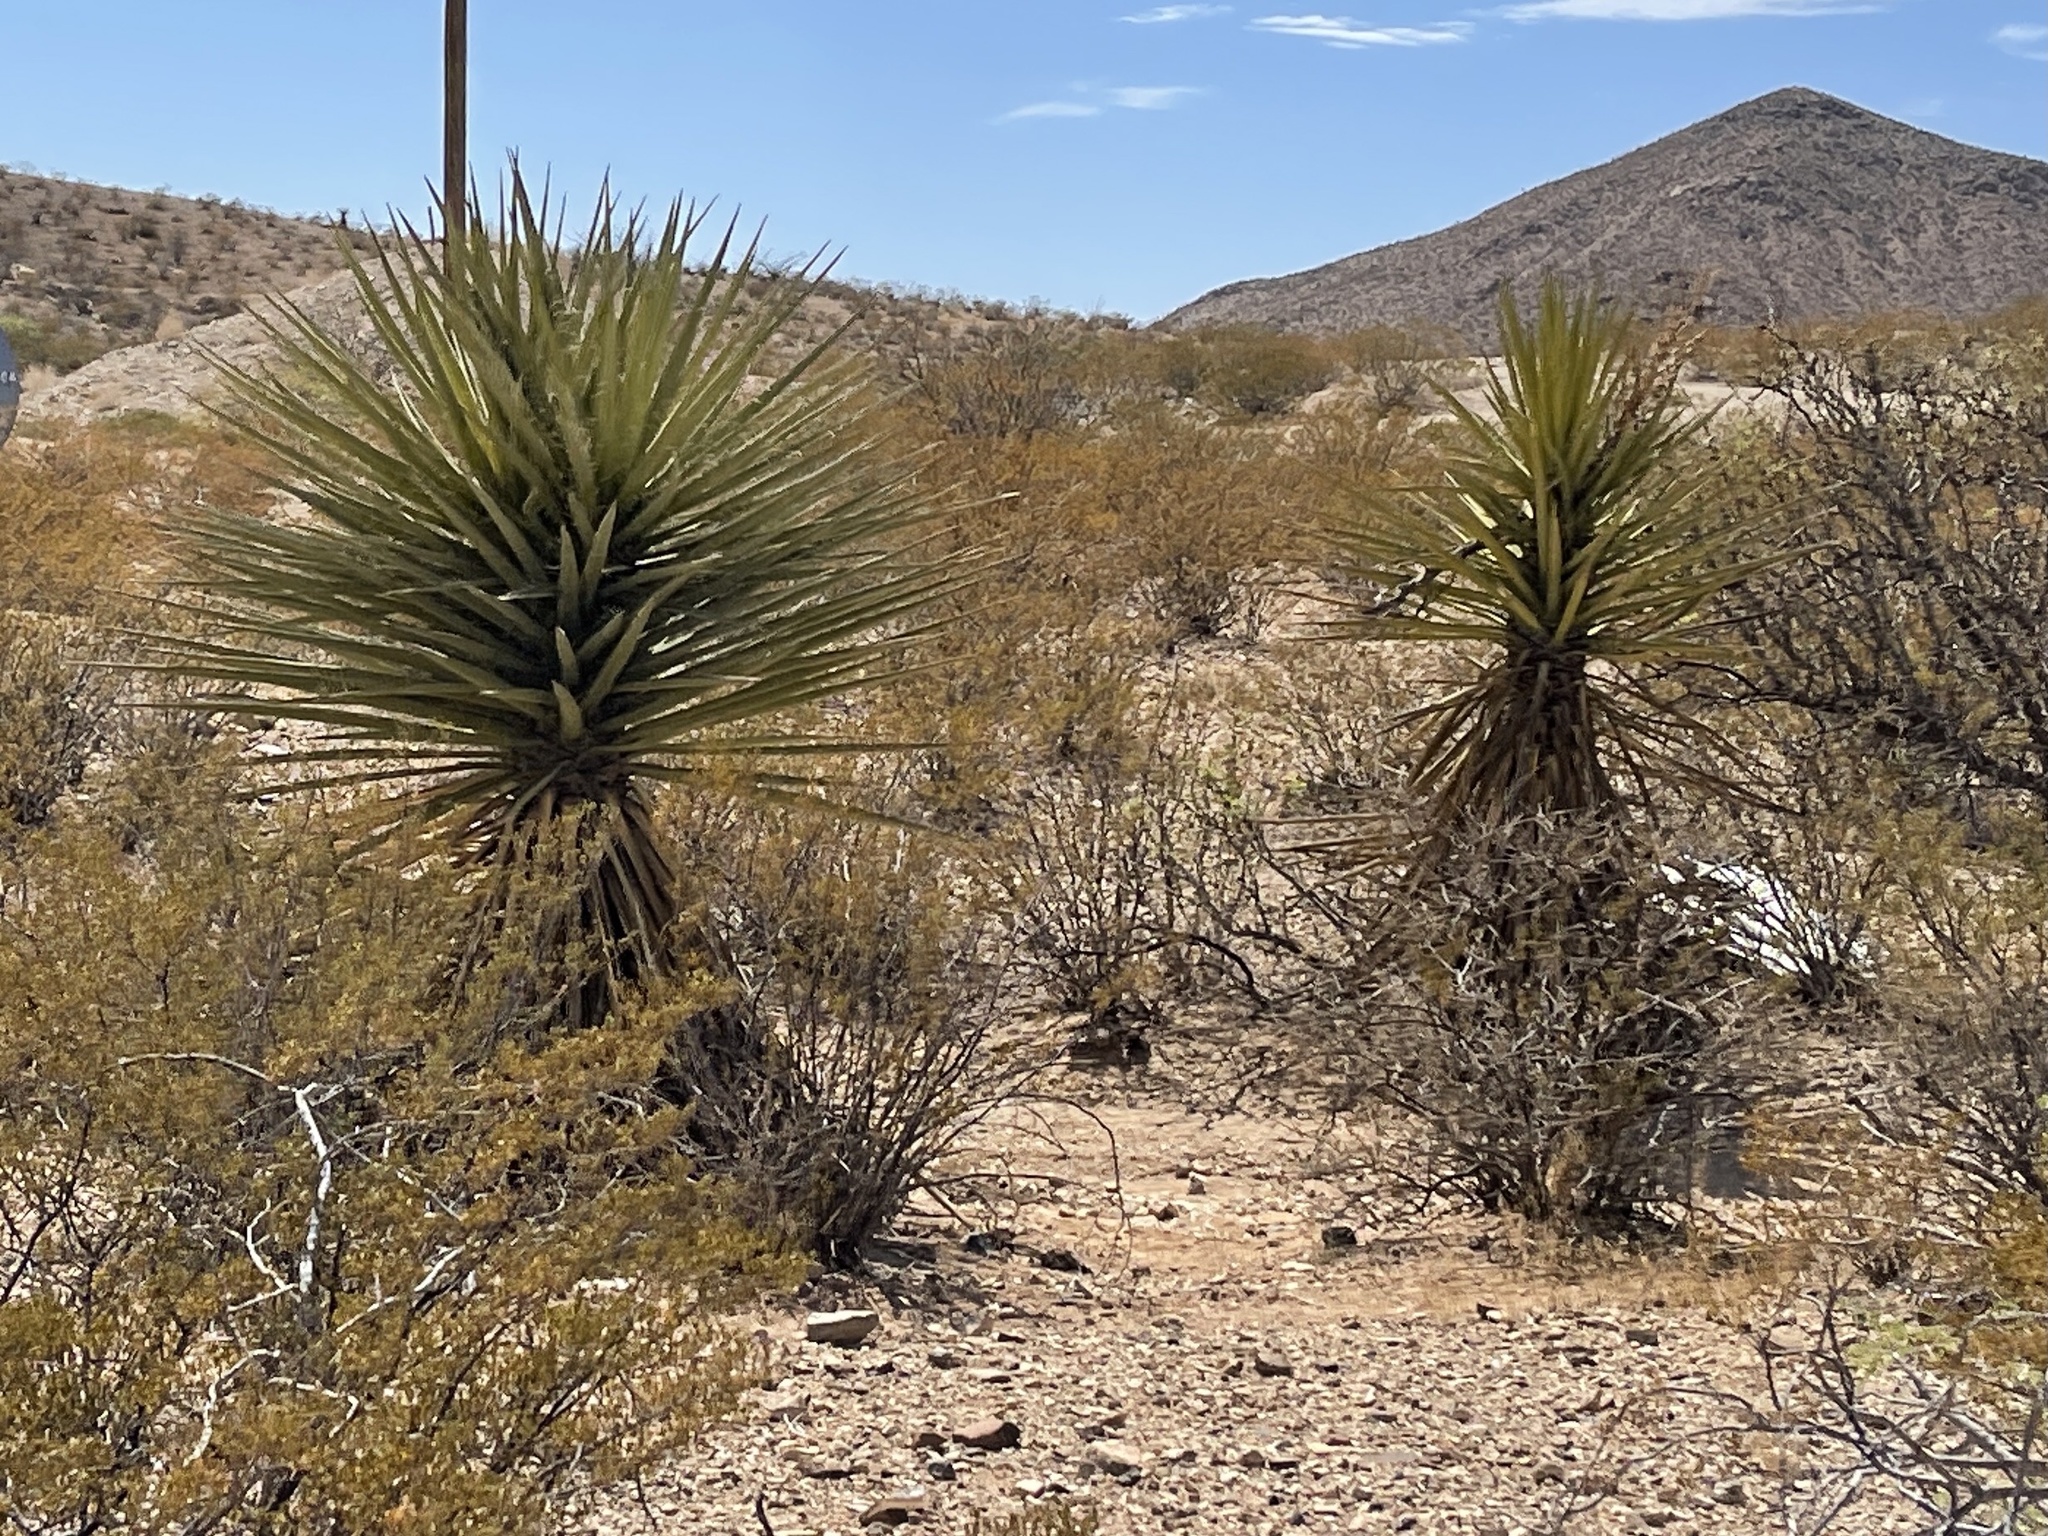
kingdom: Plantae
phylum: Tracheophyta
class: Liliopsida
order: Asparagales
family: Asparagaceae
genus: Yucca
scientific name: Yucca treculiana
